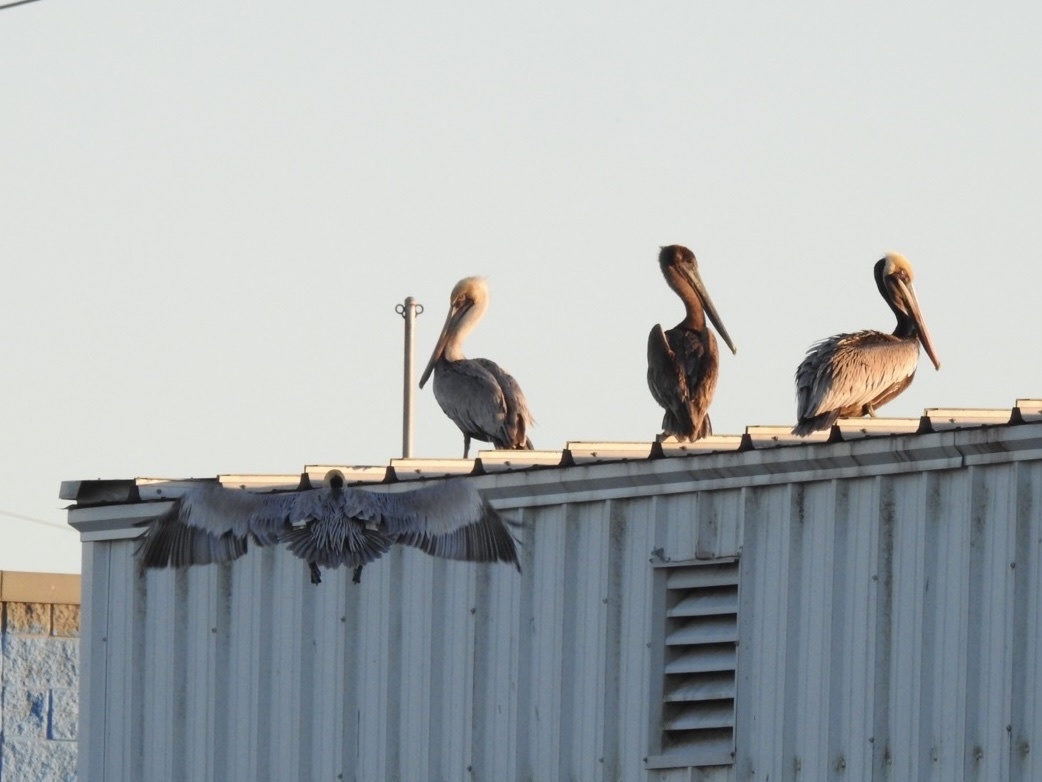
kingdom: Animalia
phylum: Chordata
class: Aves
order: Pelecaniformes
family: Pelecanidae
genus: Pelecanus
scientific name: Pelecanus occidentalis
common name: Brown pelican
